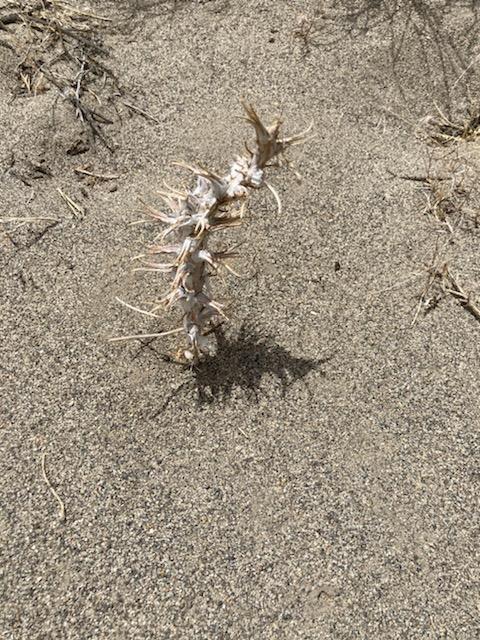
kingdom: Plantae
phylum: Tracheophyta
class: Magnoliopsida
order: Myrtales
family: Onagraceae
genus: Oenothera
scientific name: Oenothera deltoides
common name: Basket evening-primrose
